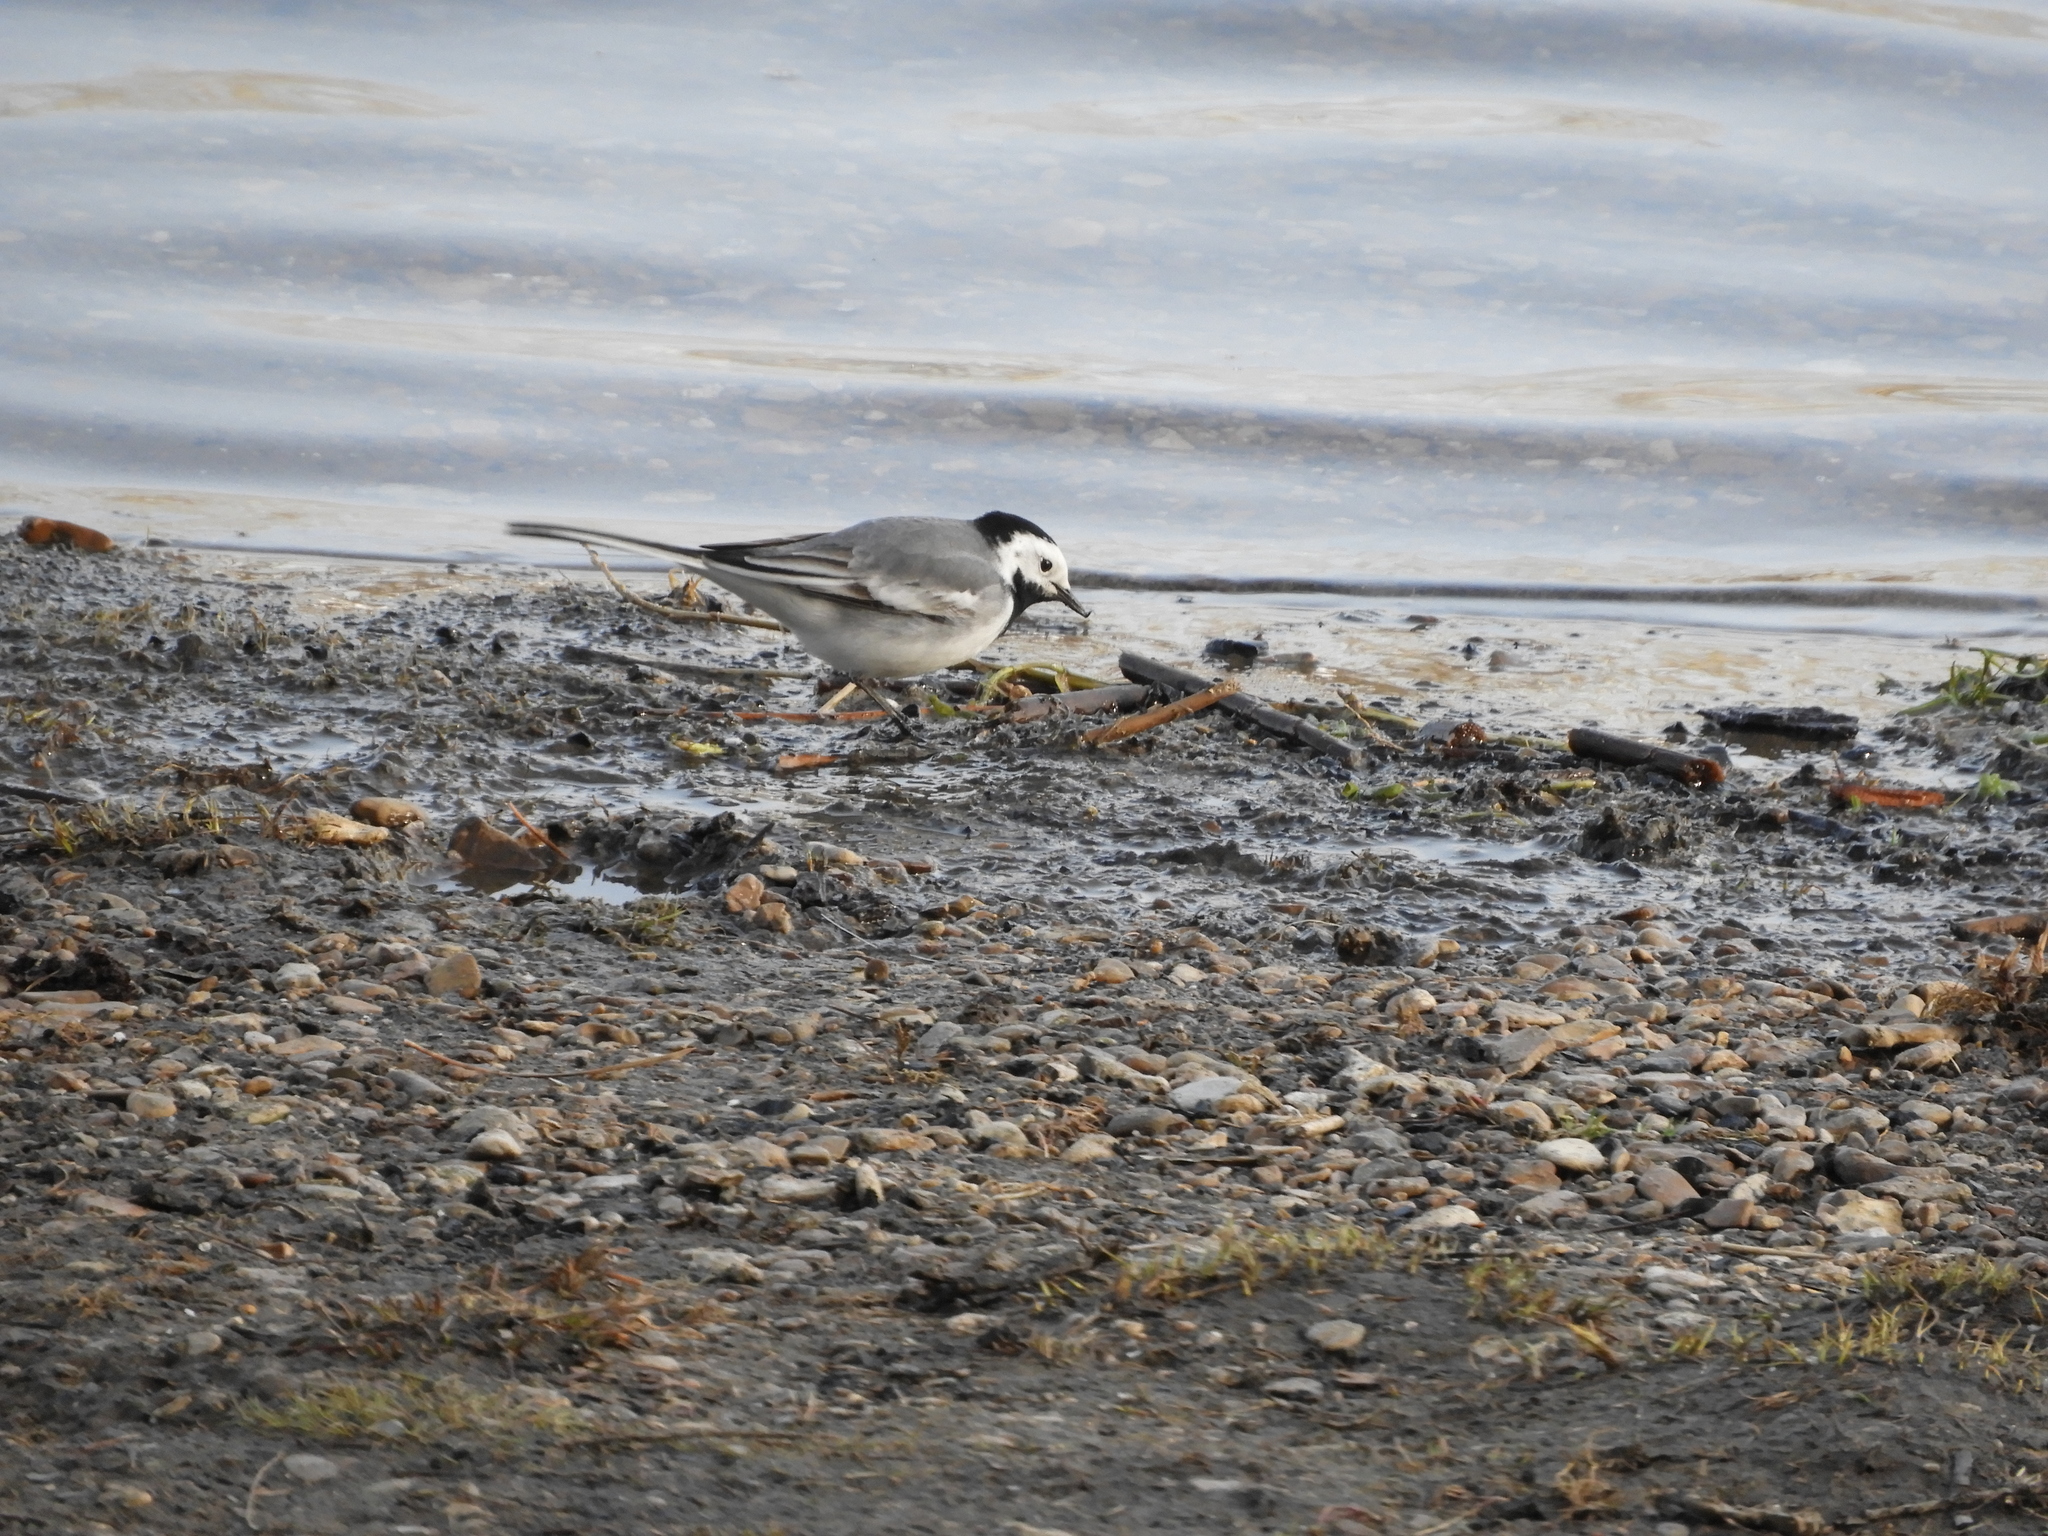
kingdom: Animalia
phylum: Chordata
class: Aves
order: Passeriformes
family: Motacillidae
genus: Motacilla
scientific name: Motacilla alba
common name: White wagtail
